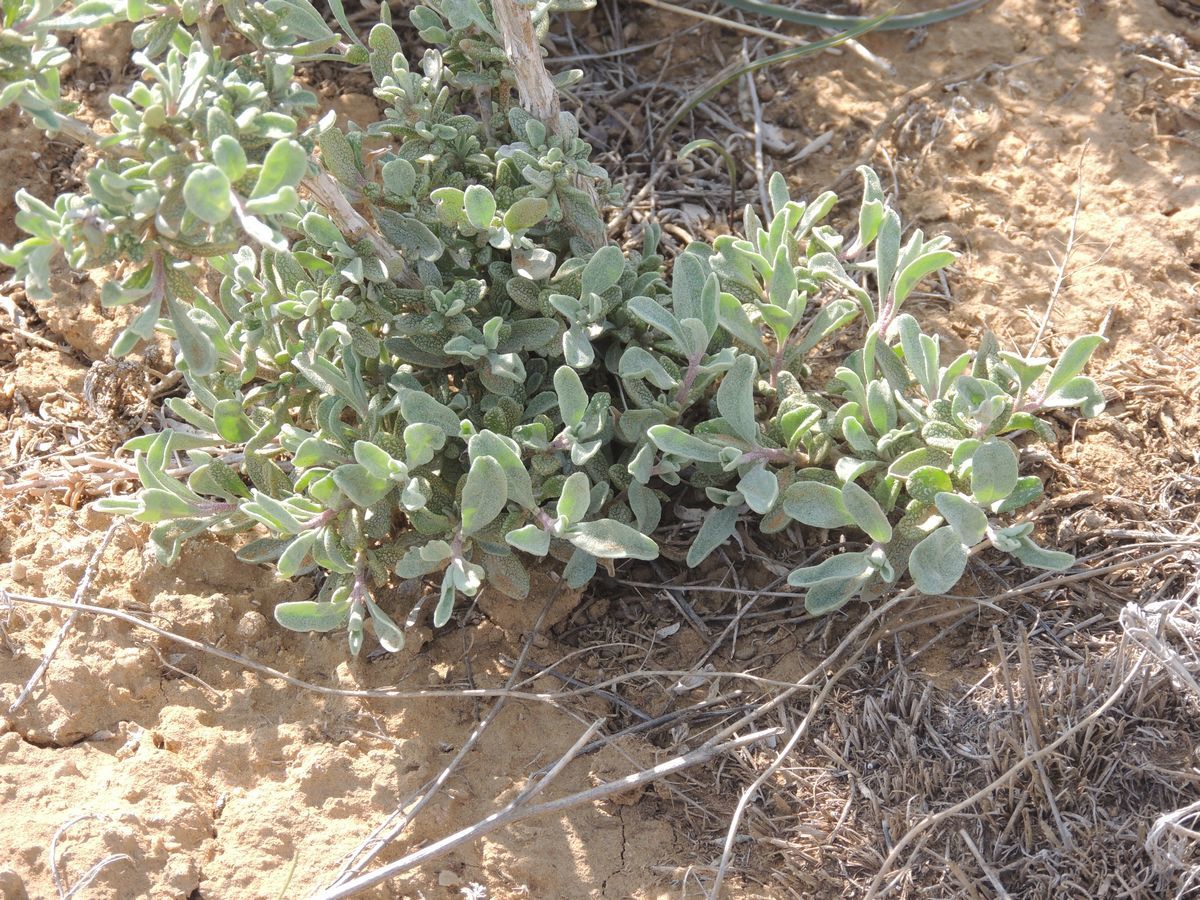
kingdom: Plantae
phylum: Tracheophyta
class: Magnoliopsida
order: Caryophyllales
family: Amaranthaceae
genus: Atriplex
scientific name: Atriplex cana
